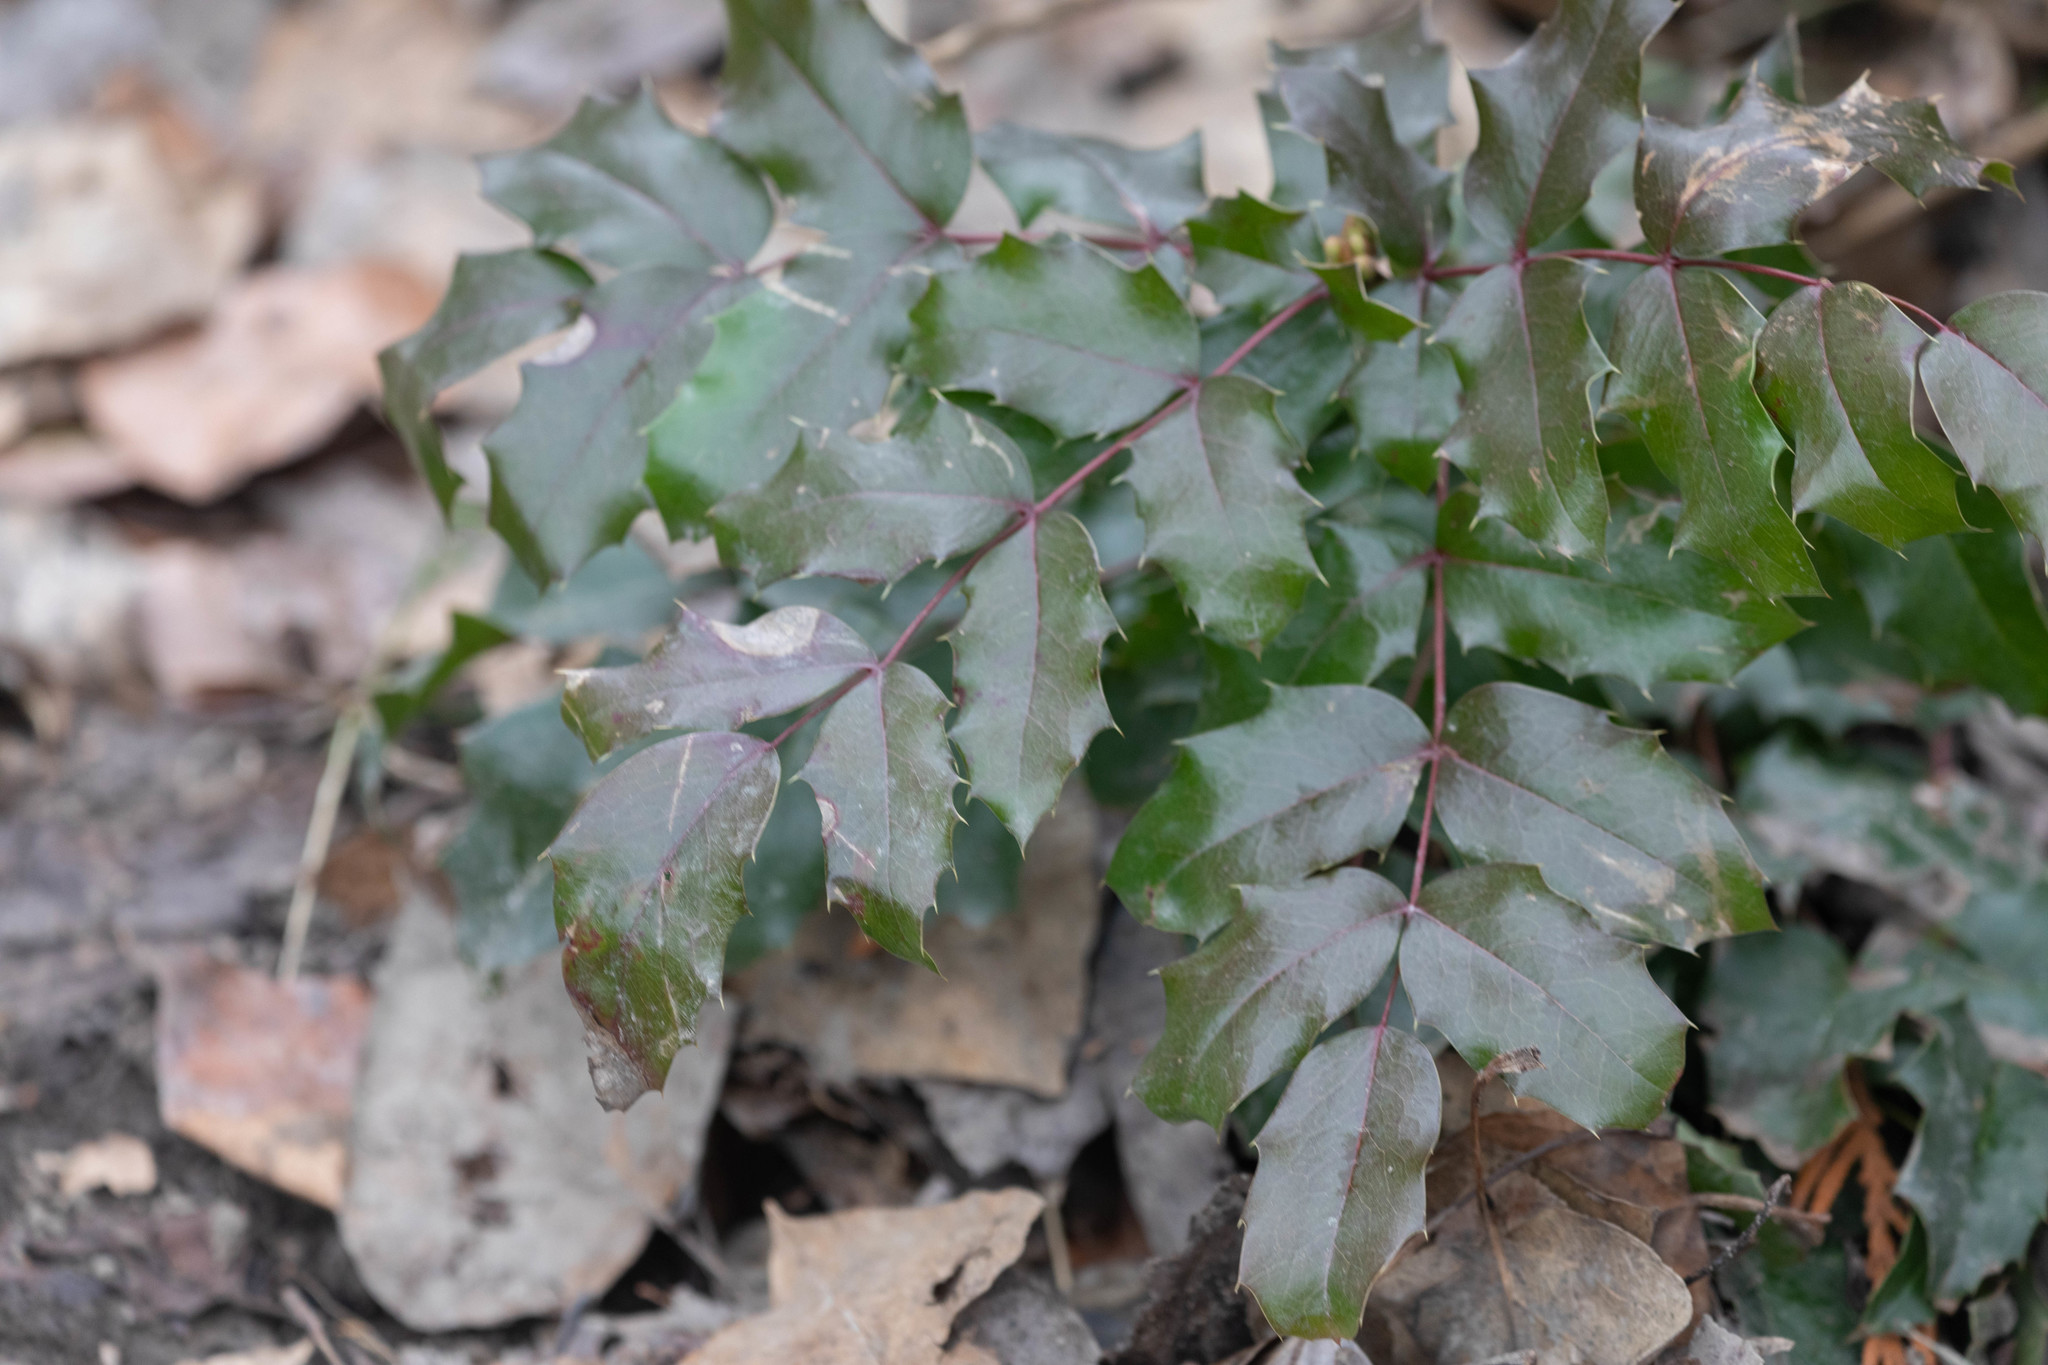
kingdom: Plantae
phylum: Tracheophyta
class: Magnoliopsida
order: Ranunculales
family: Berberidaceae
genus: Mahonia
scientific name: Mahonia aquifolium
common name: Oregon-grape
